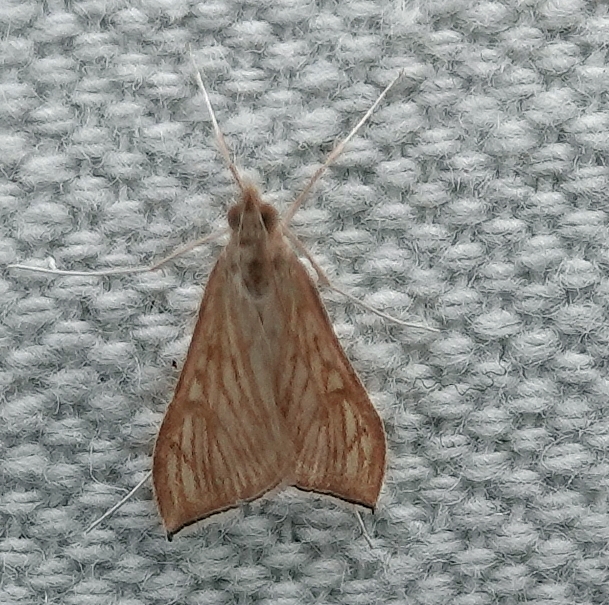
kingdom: Animalia
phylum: Arthropoda
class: Insecta
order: Lepidoptera
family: Crambidae
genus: Antigastra
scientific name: Antigastra catalaunalis
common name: Spanish dot
